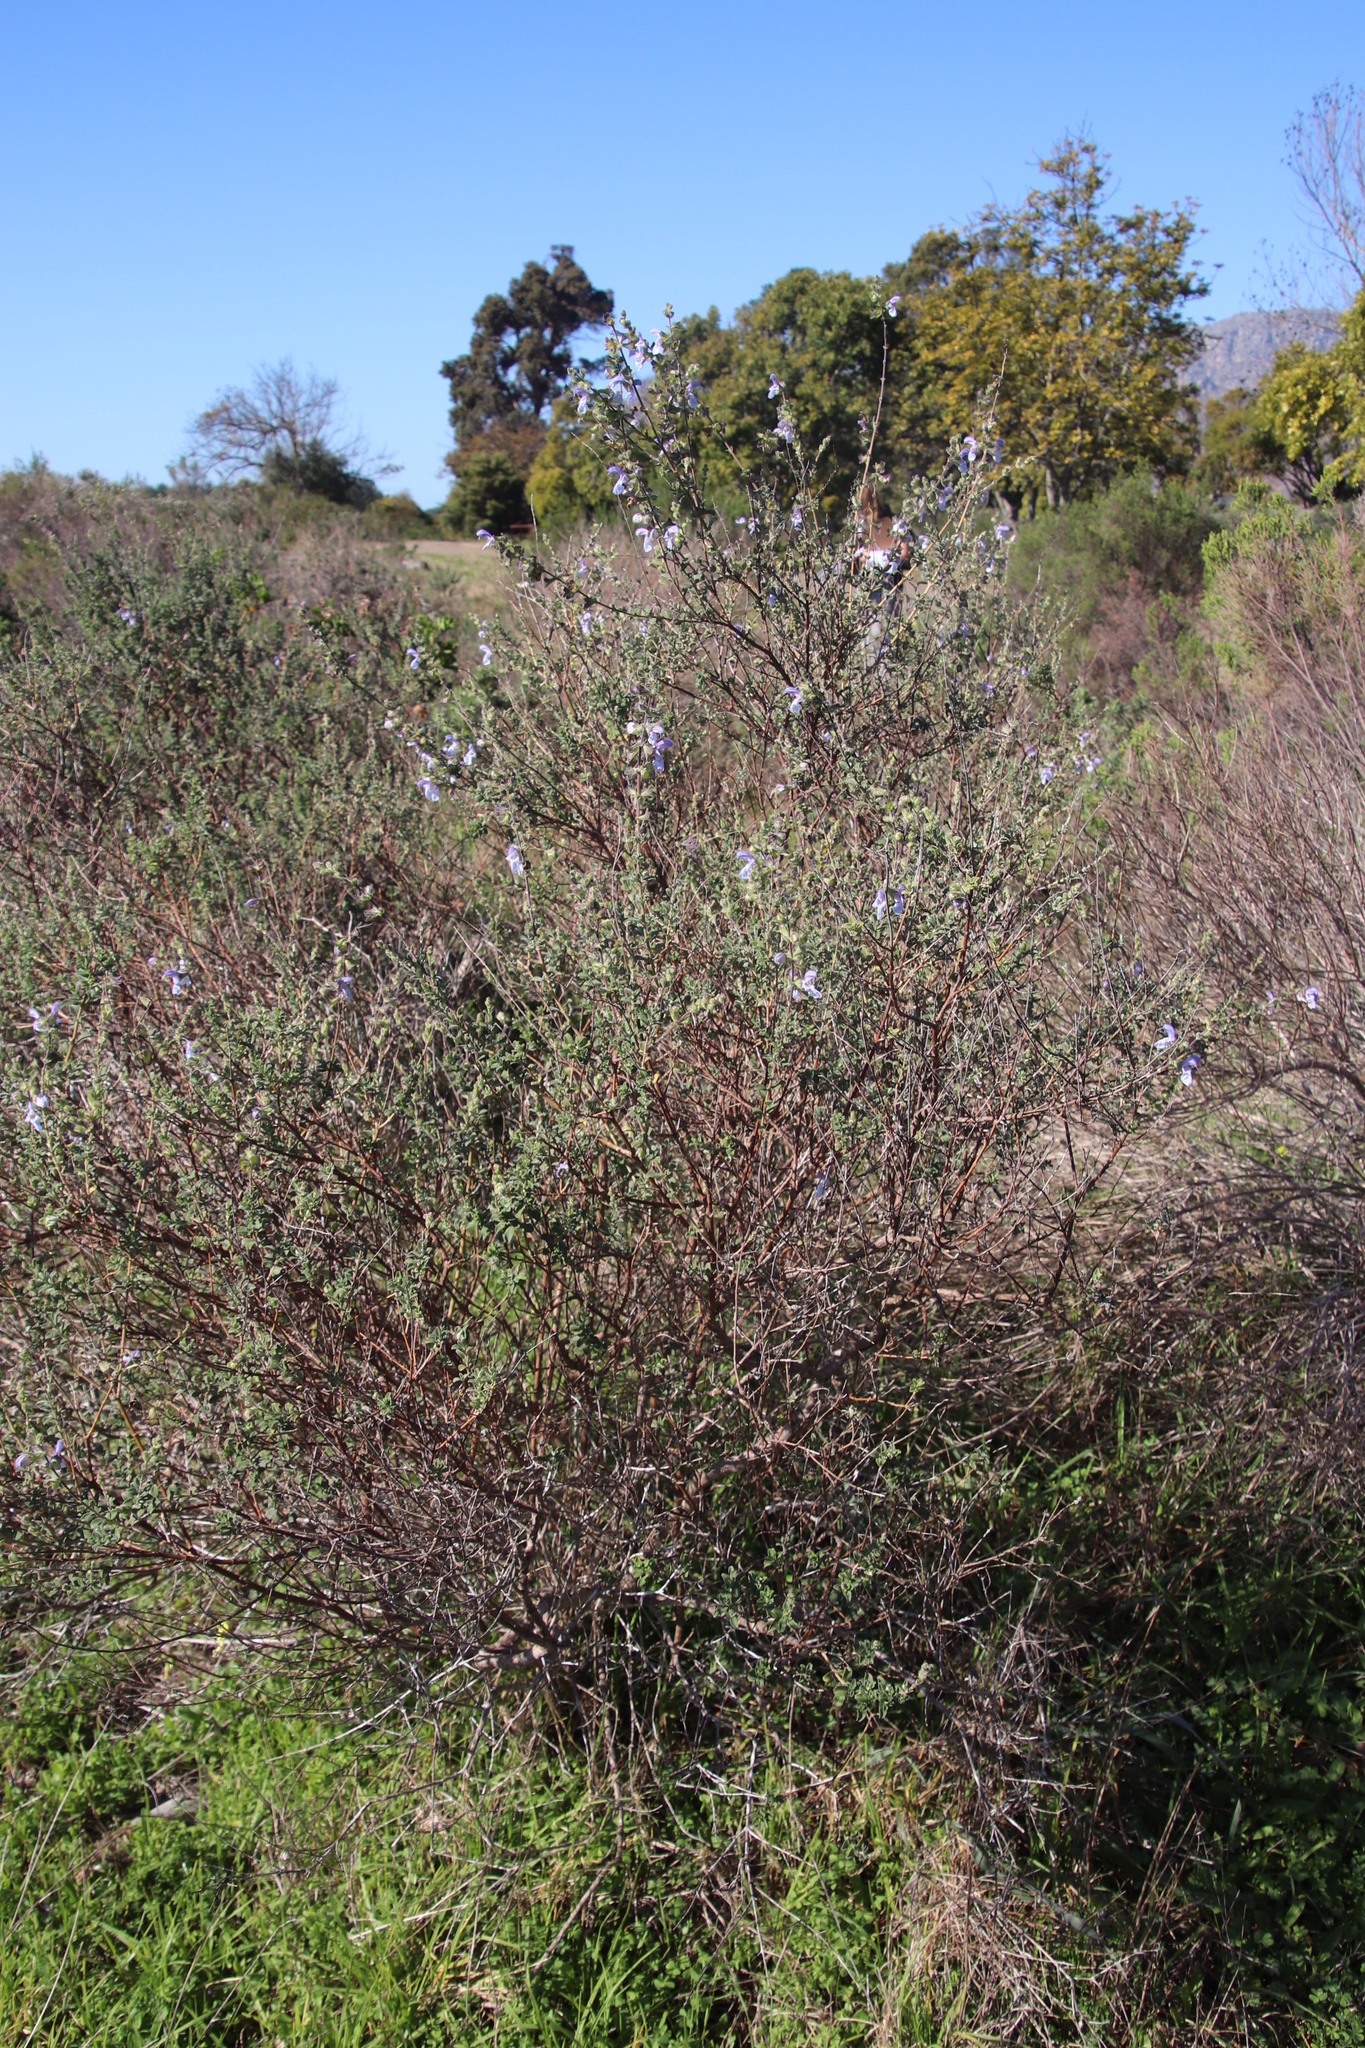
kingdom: Plantae
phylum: Tracheophyta
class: Magnoliopsida
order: Lamiales
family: Lamiaceae
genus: Salvia
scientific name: Salvia africana
